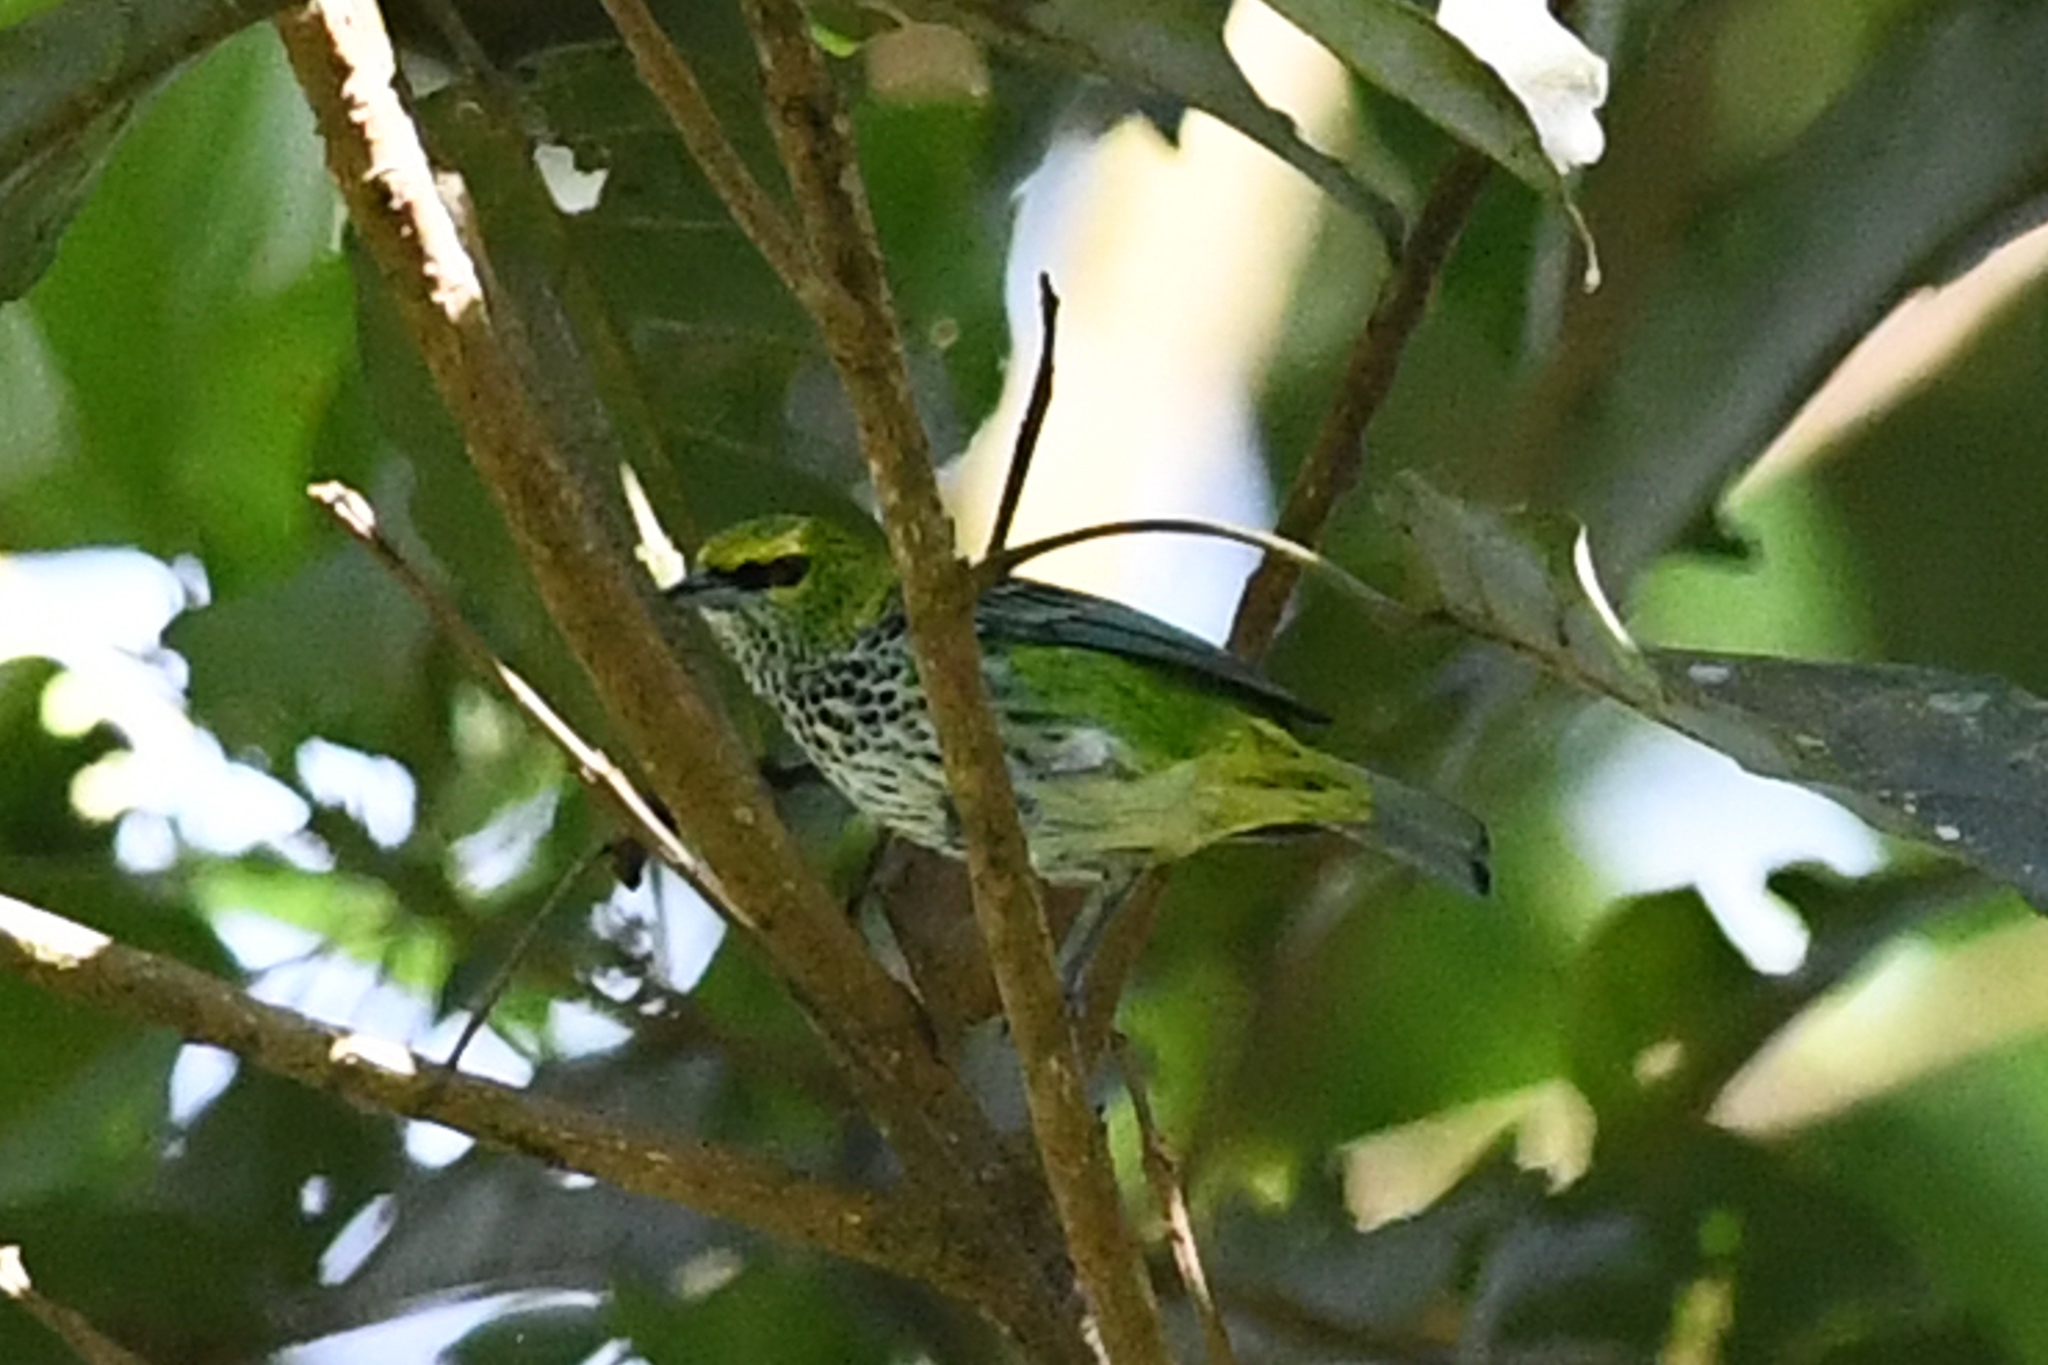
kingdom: Animalia
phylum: Chordata
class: Aves
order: Passeriformes
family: Thraupidae
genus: Ixothraupis
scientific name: Ixothraupis guttata
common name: Speckled tanager
